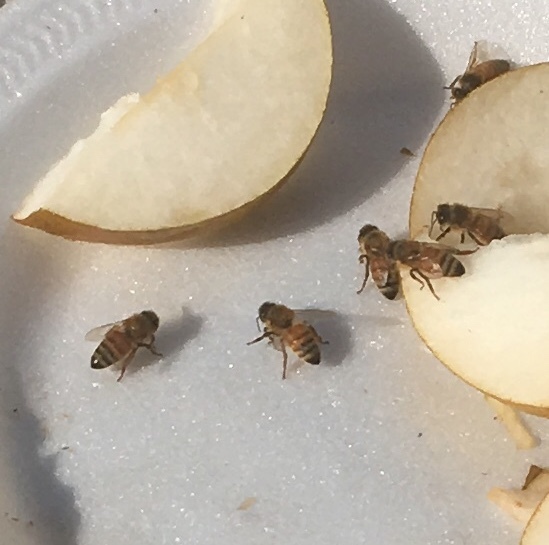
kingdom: Animalia
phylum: Arthropoda
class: Insecta
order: Hymenoptera
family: Apidae
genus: Apis
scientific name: Apis mellifera
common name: Honey bee
